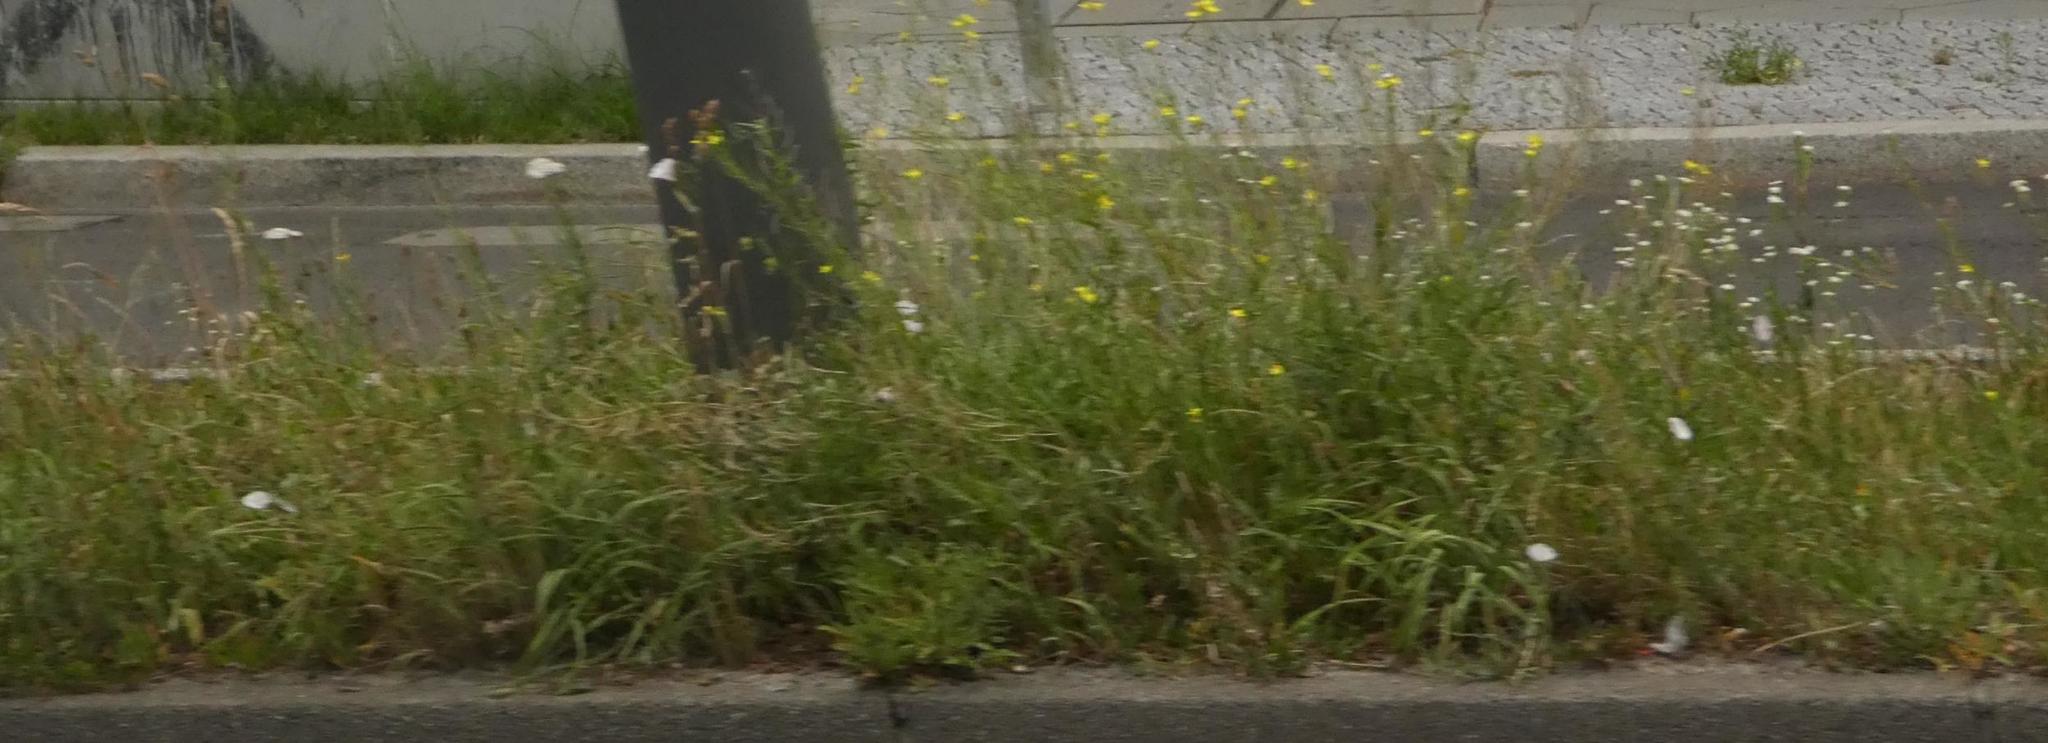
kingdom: Plantae
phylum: Tracheophyta
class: Magnoliopsida
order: Solanales
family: Convolvulaceae
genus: Convolvulus
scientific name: Convolvulus arvensis
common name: Field bindweed
